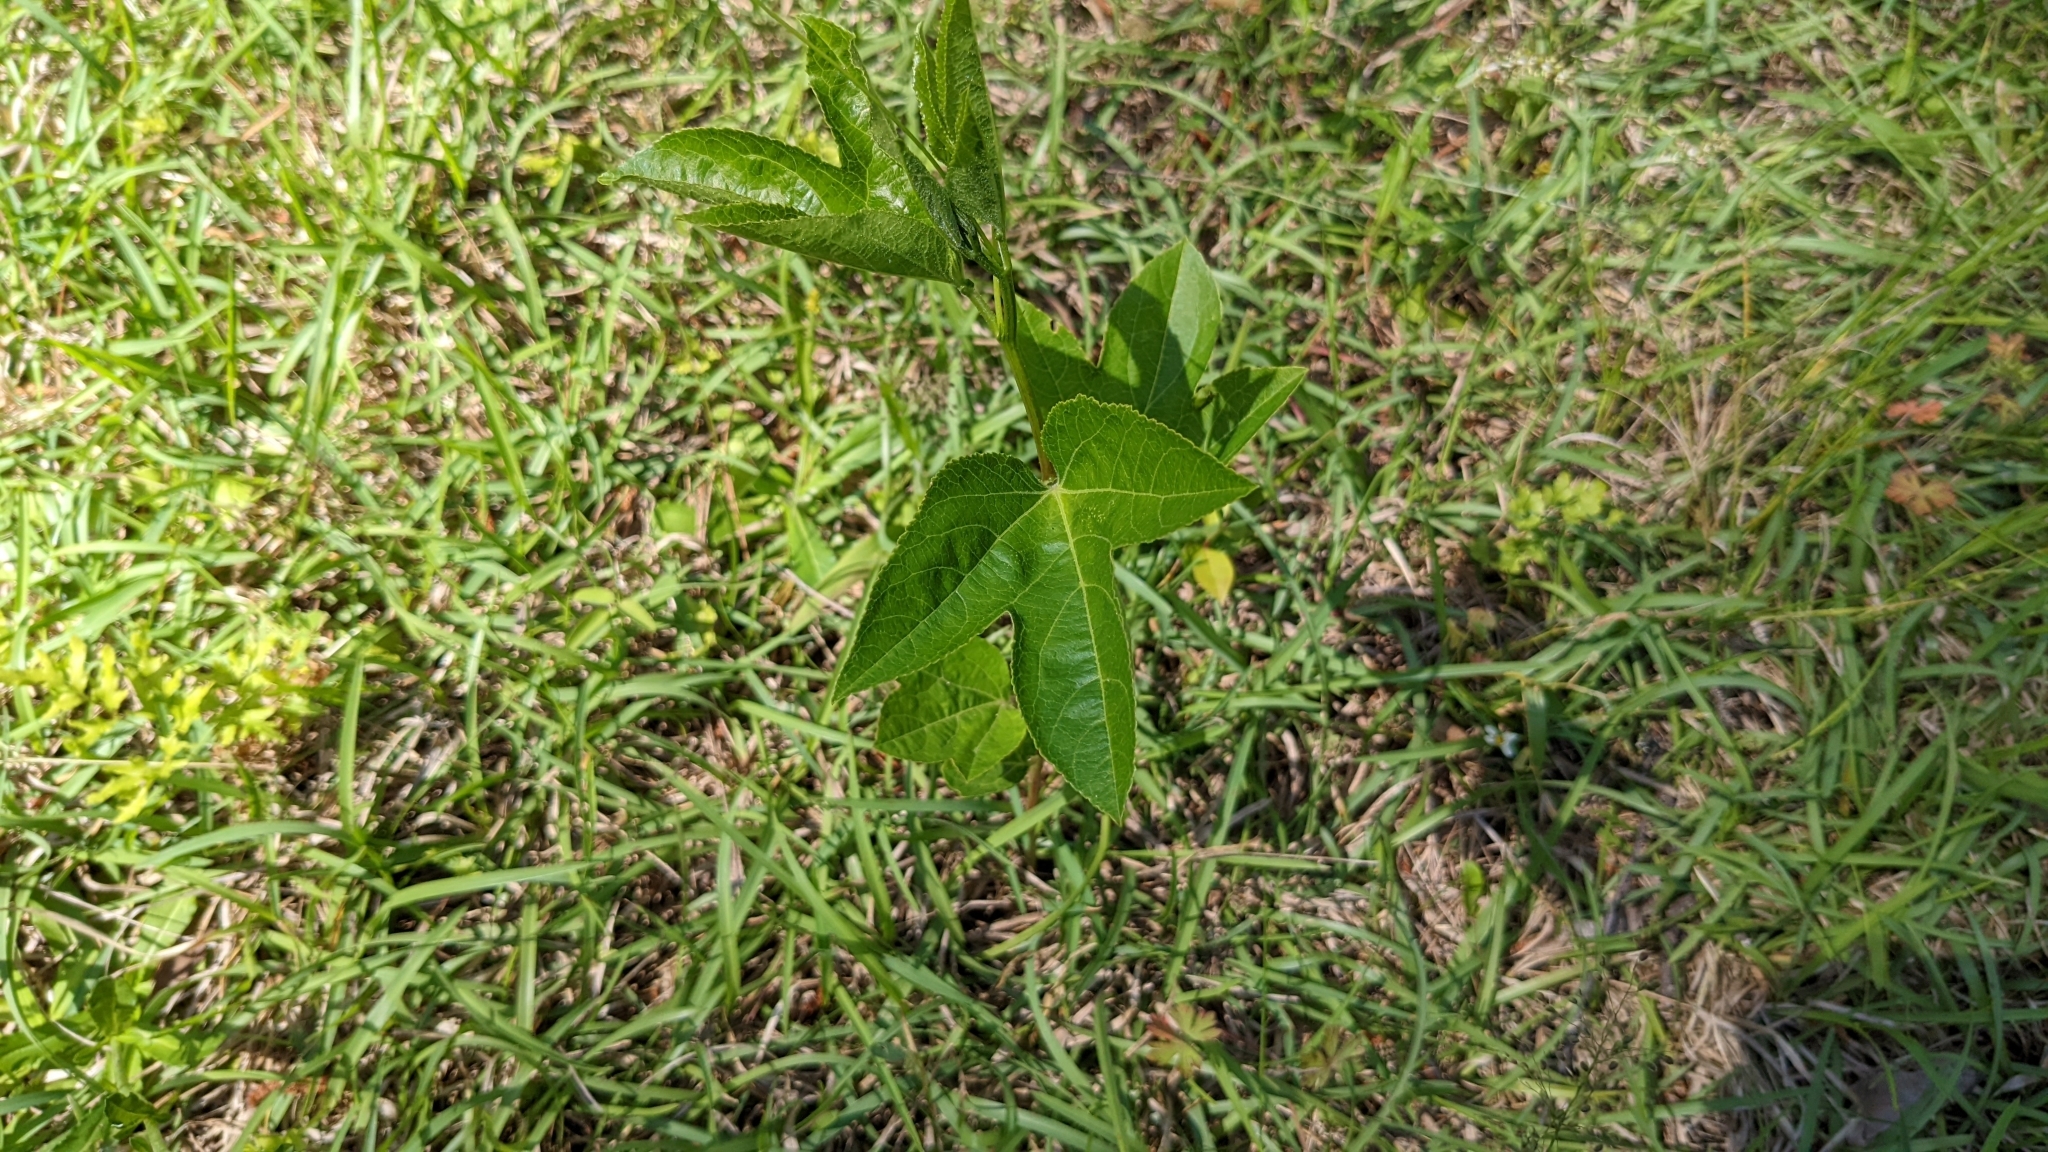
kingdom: Plantae
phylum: Tracheophyta
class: Magnoliopsida
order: Malpighiales
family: Passifloraceae
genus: Passiflora
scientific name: Passiflora incarnata
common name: Apricot-vine
